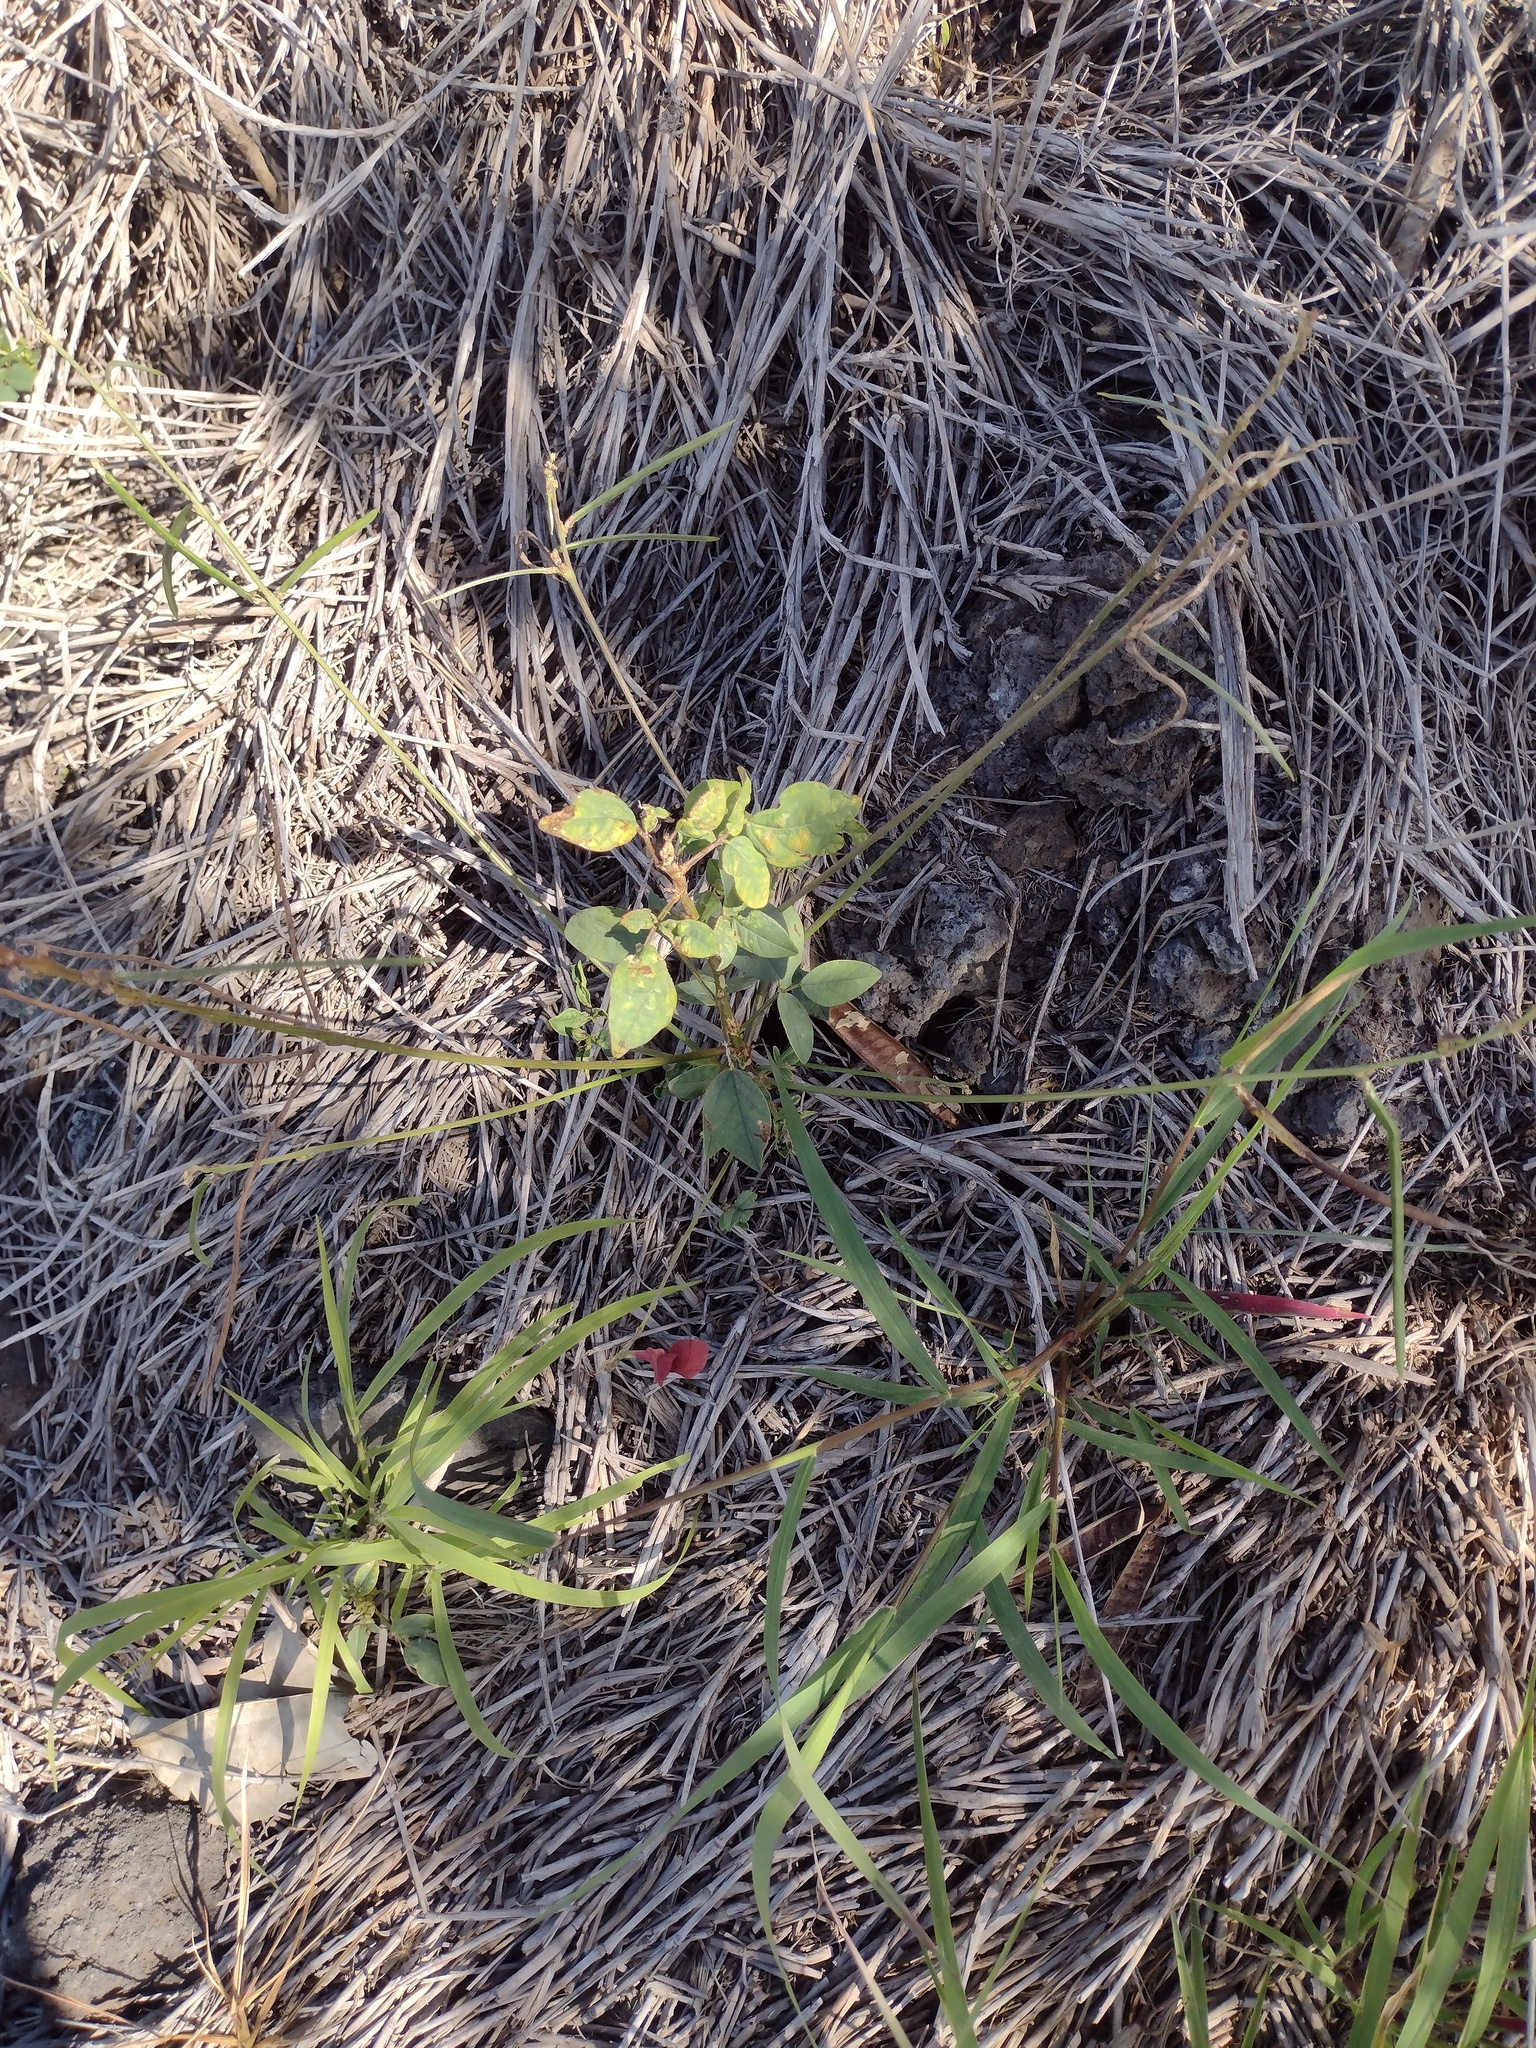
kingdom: Plantae
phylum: Tracheophyta
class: Magnoliopsida
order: Fabales
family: Fabaceae
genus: Macroptilium
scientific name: Macroptilium lathyroides
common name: Wild bushbean
